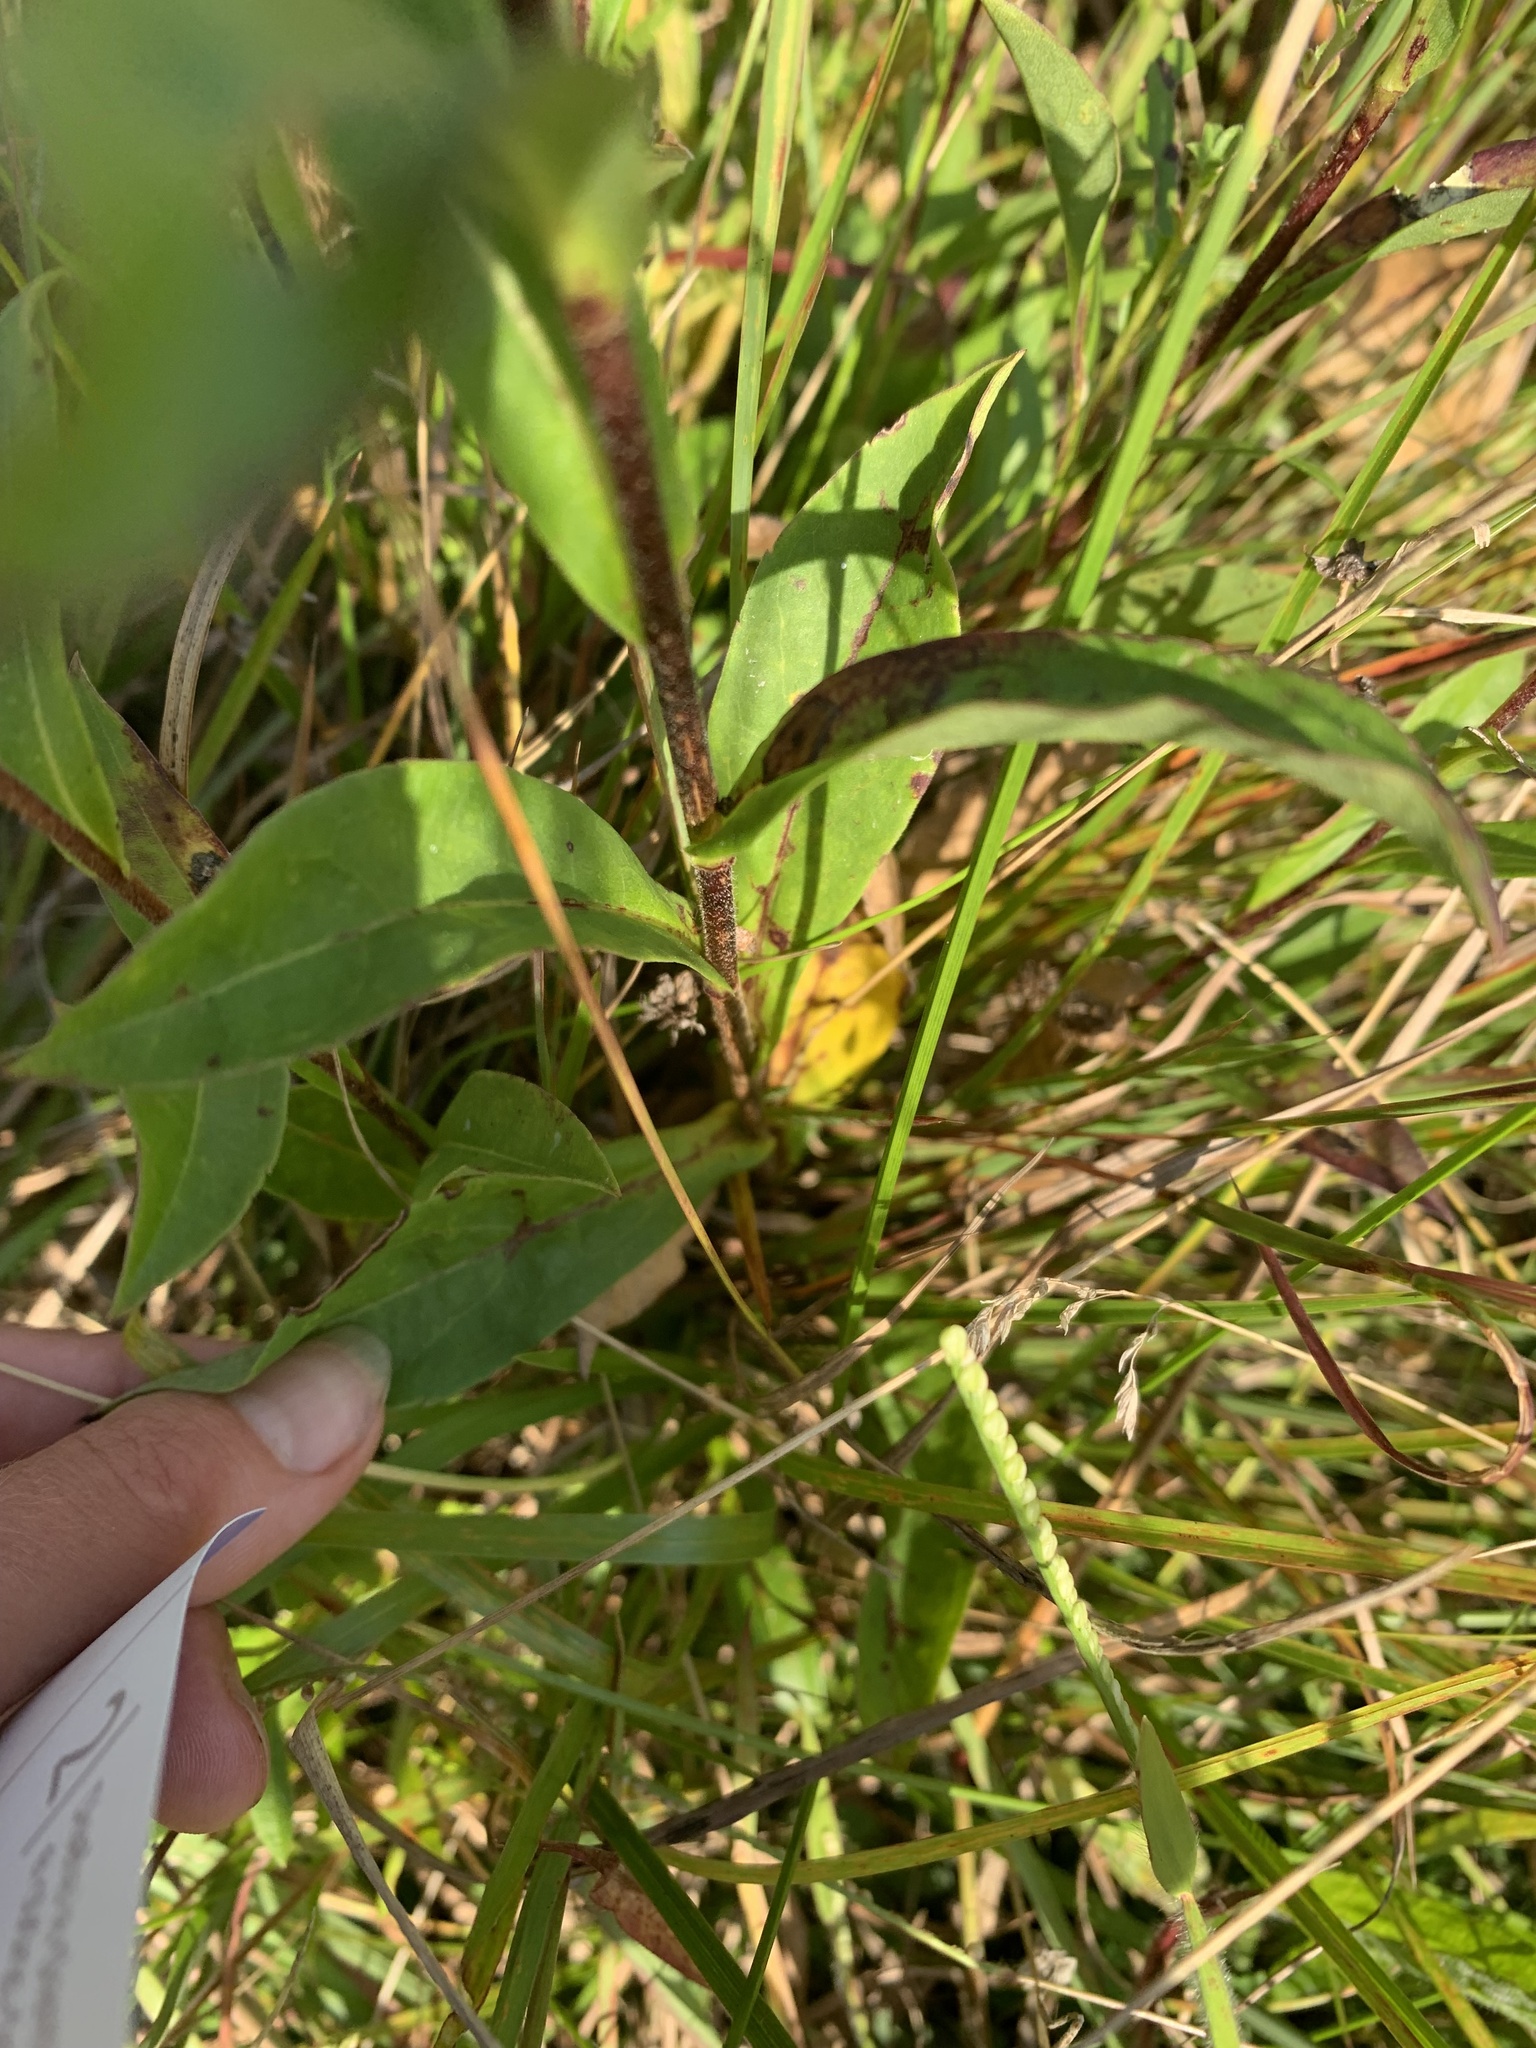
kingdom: Plantae
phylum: Tracheophyta
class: Magnoliopsida
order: Asterales
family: Asteraceae
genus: Eurybia
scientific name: Eurybia spectabilis
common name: Low showy aster
